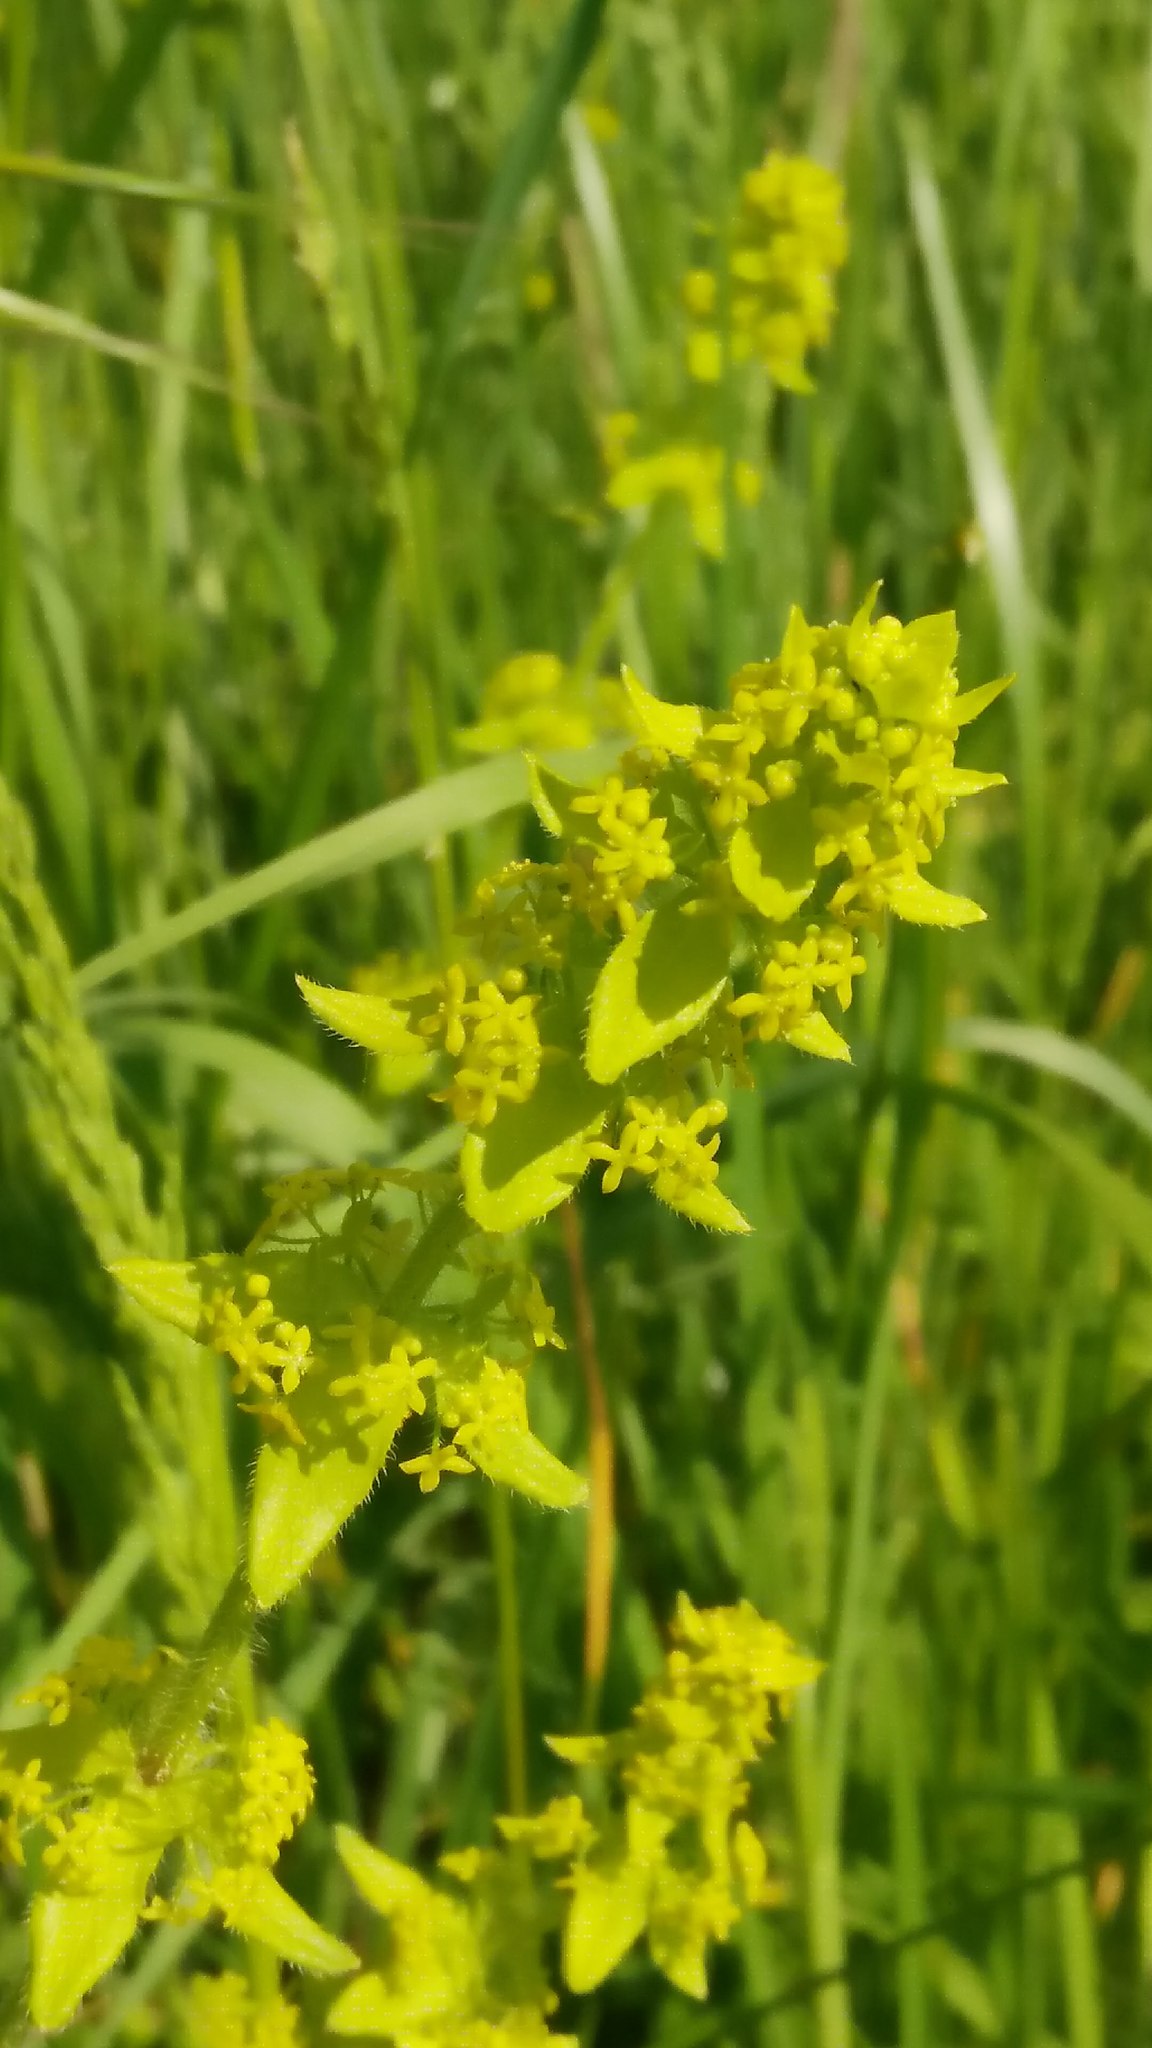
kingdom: Plantae
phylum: Tracheophyta
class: Magnoliopsida
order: Gentianales
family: Rubiaceae
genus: Cruciata
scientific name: Cruciata laevipes
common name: Crosswort
